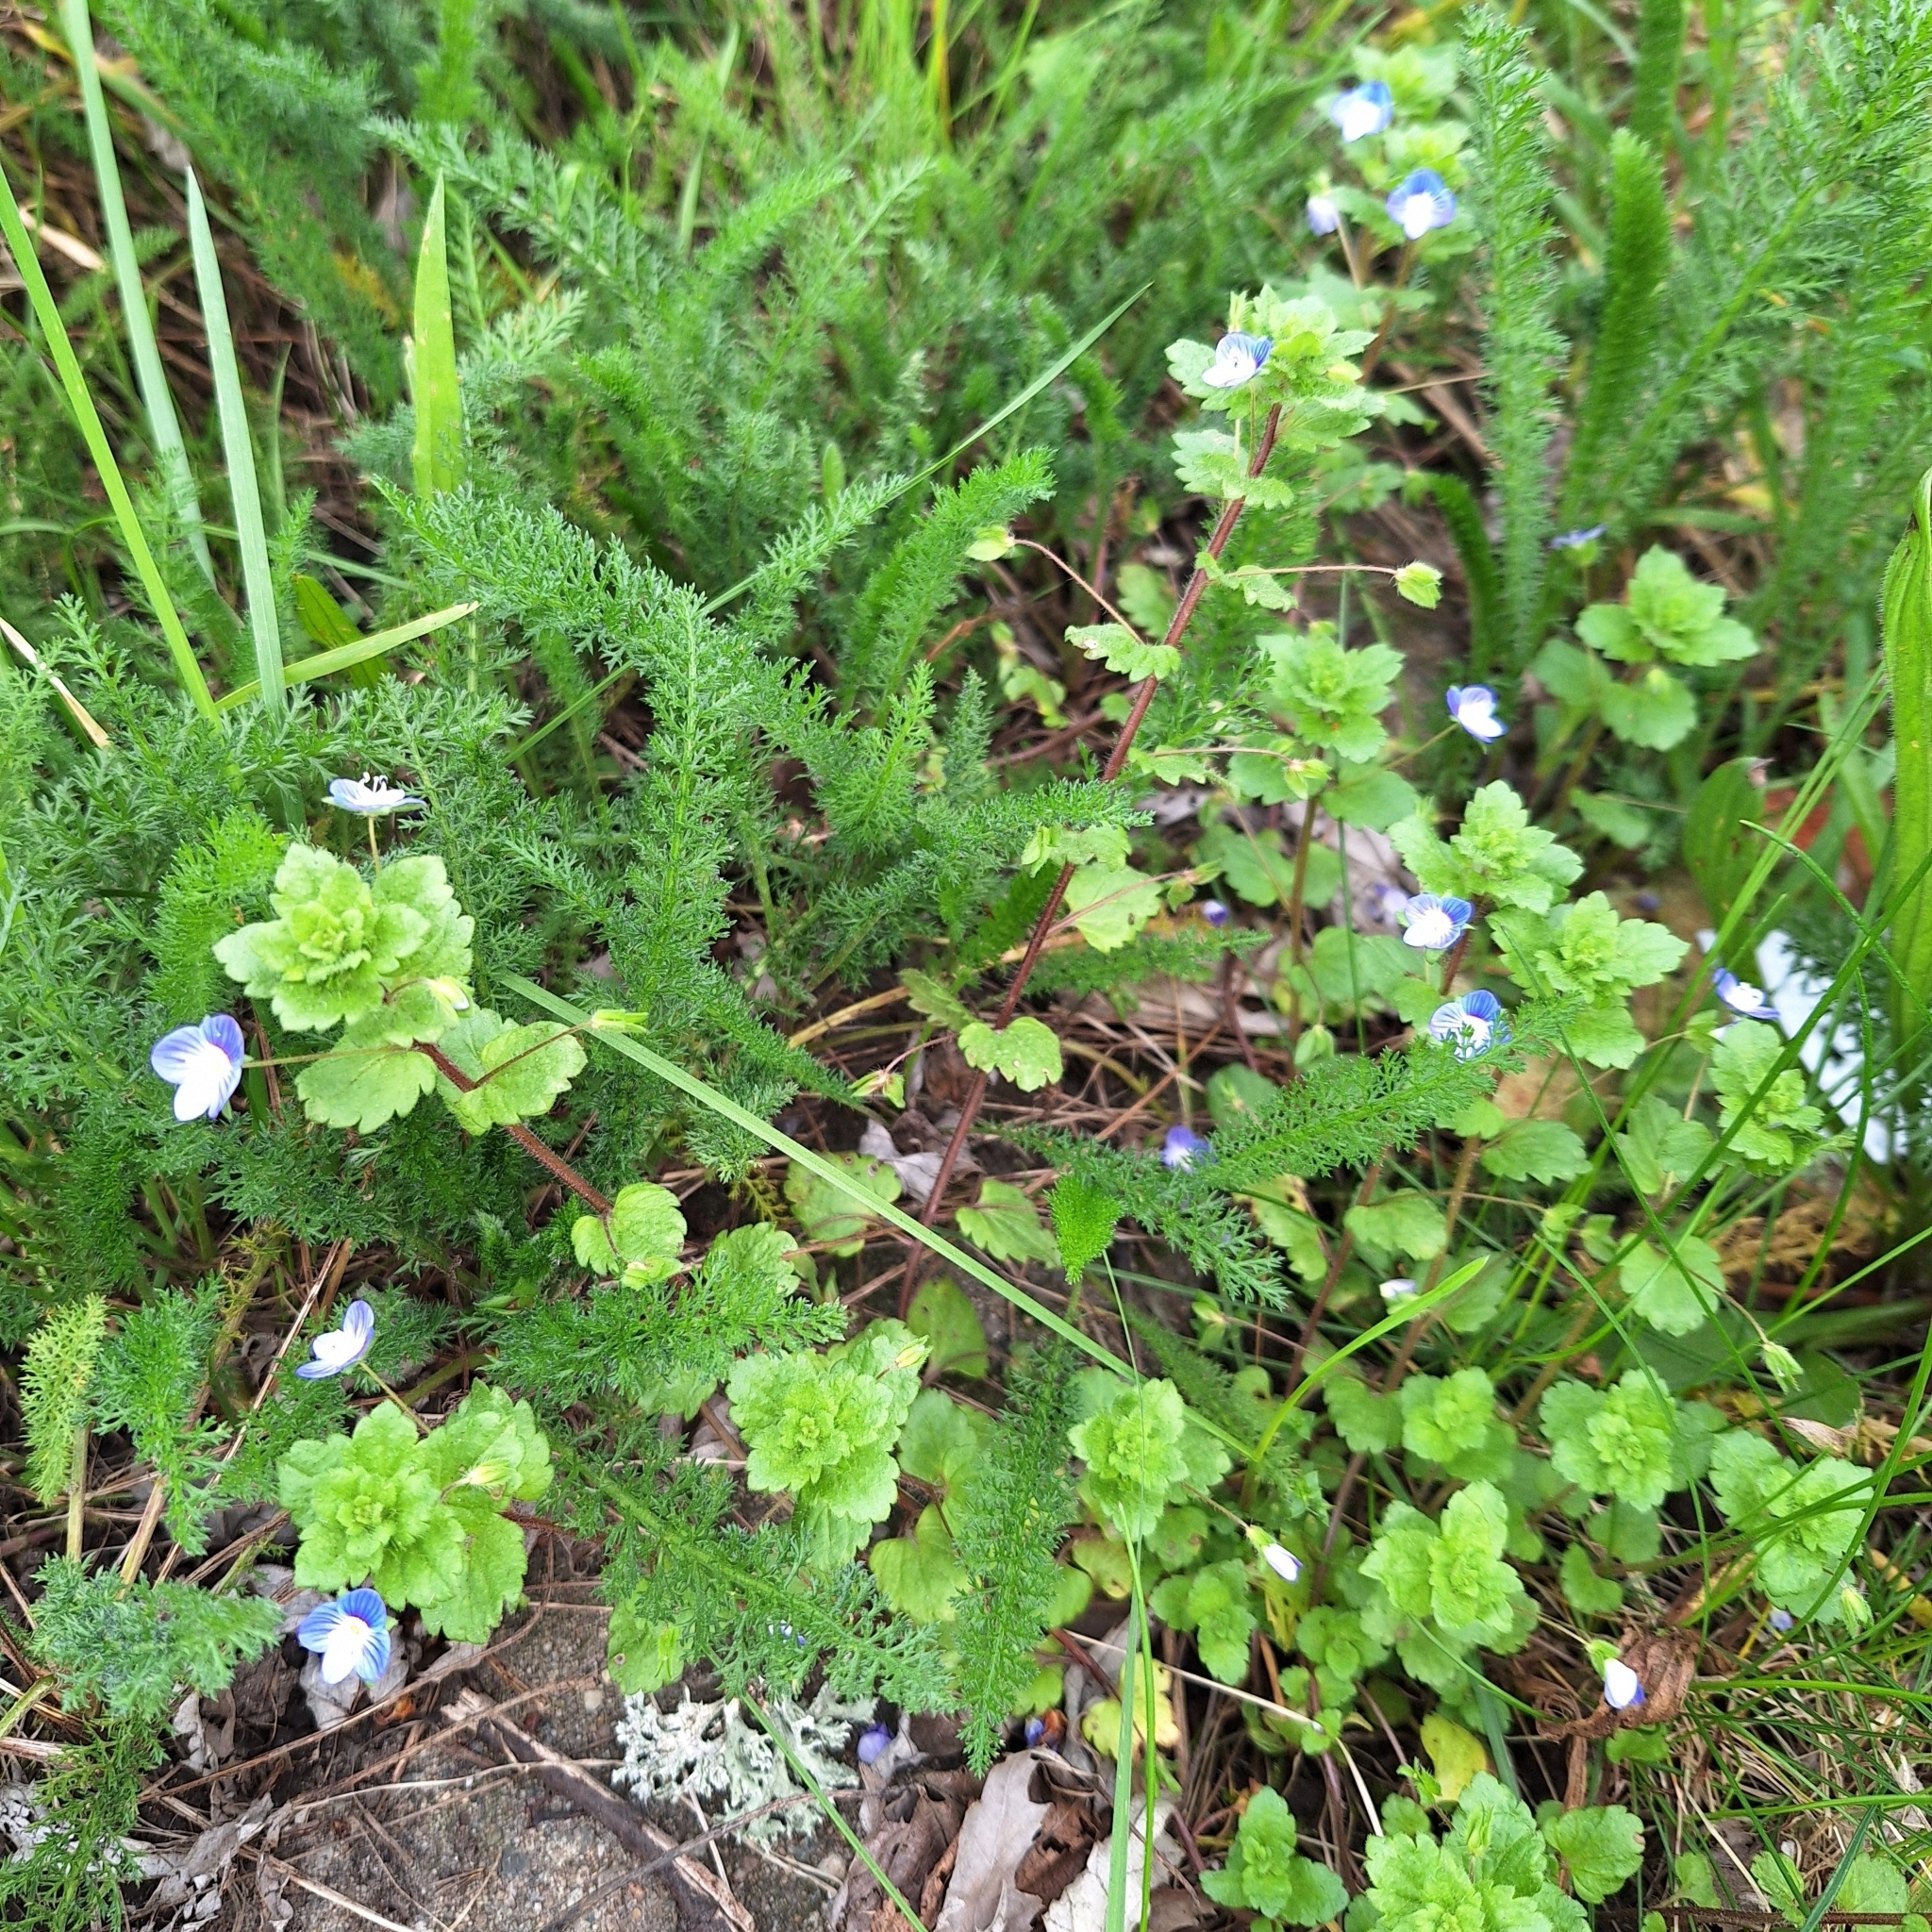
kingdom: Plantae
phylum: Tracheophyta
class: Magnoliopsida
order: Lamiales
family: Plantaginaceae
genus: Veronica
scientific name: Veronica persica
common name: Common field-speedwell
